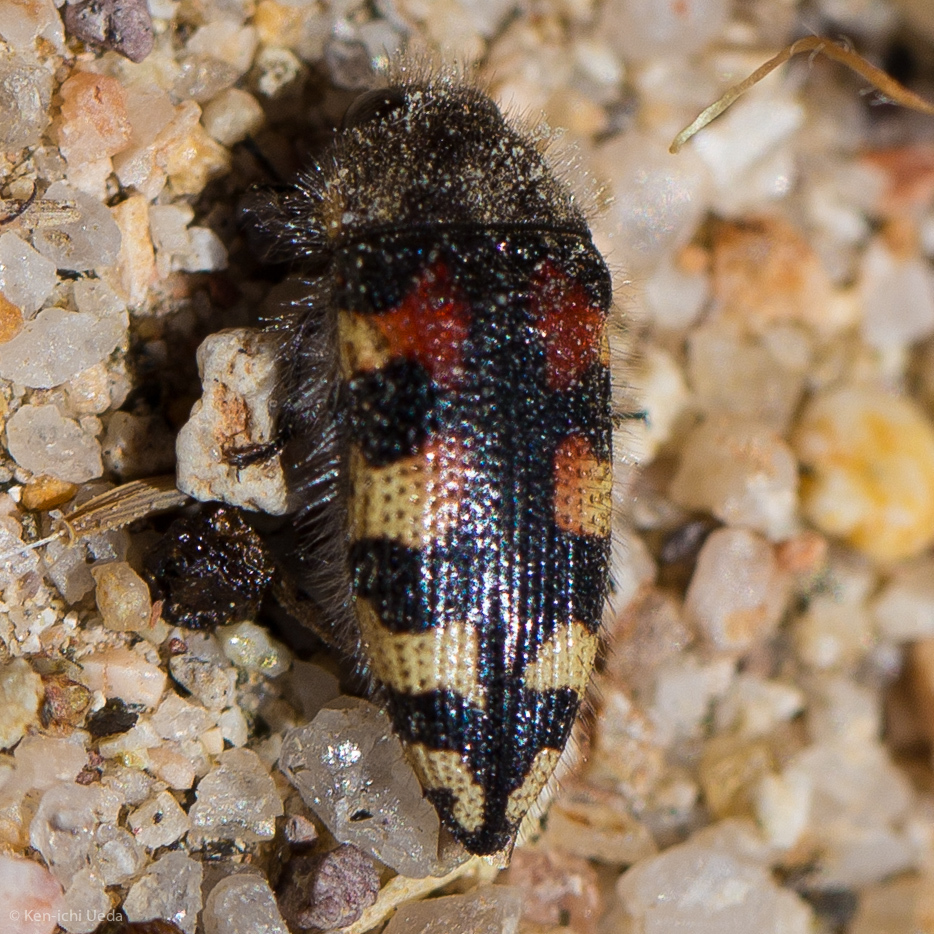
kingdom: Animalia
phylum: Arthropoda
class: Insecta
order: Coleoptera
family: Buprestidae
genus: Acmaeodera
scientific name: Acmaeodera tuta
